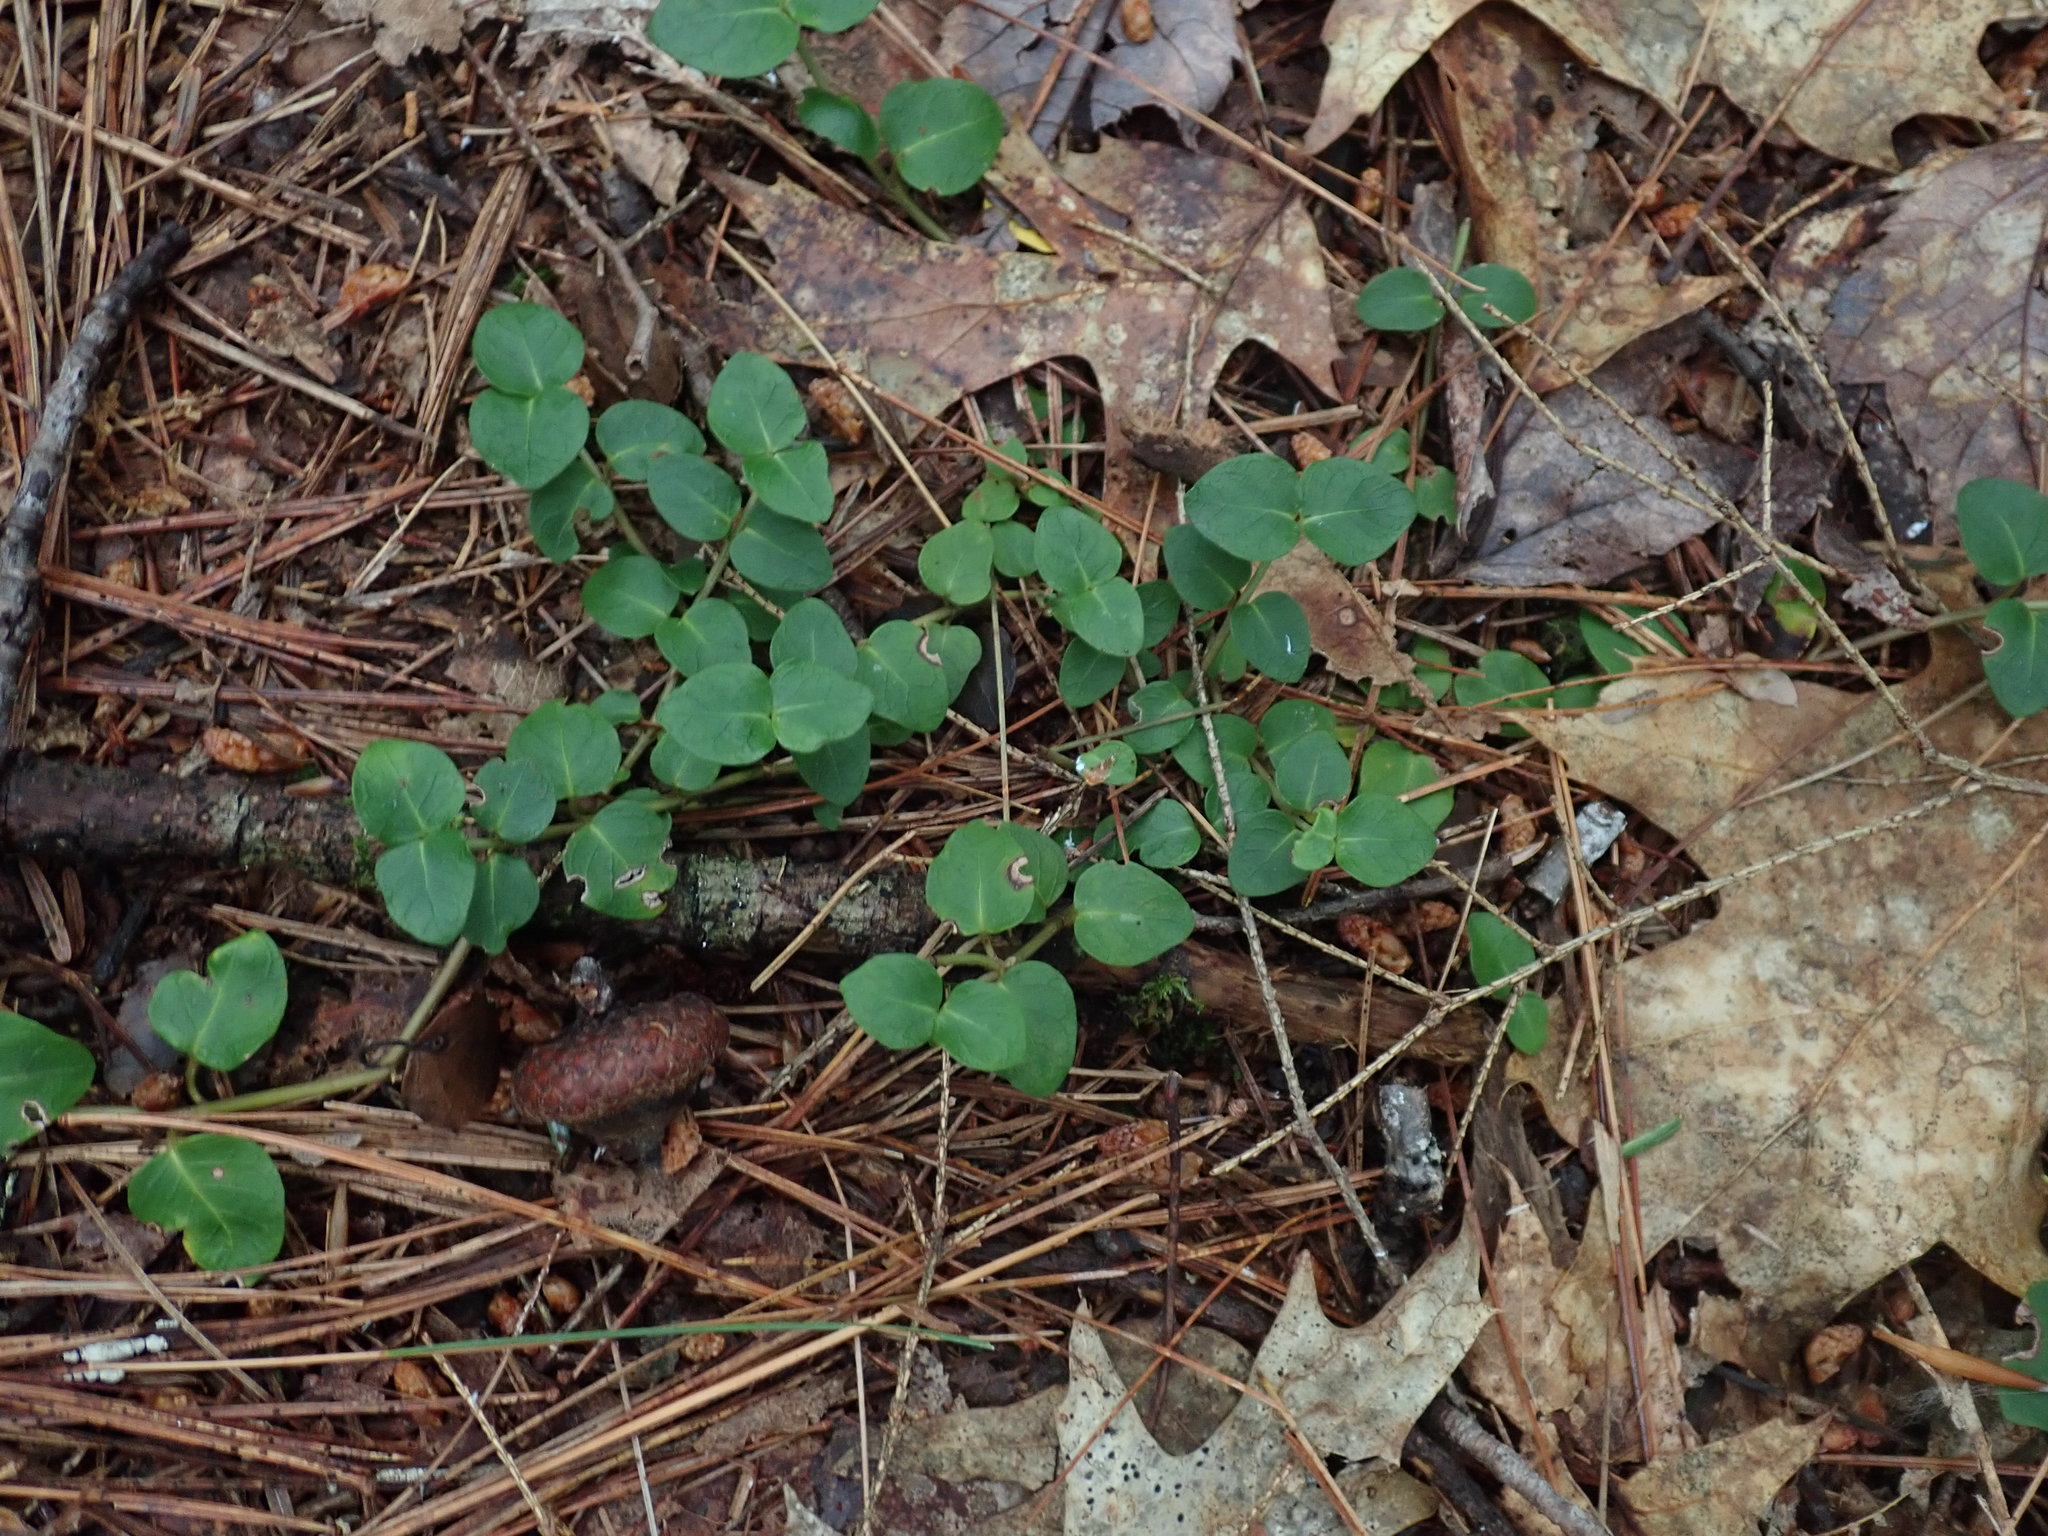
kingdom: Plantae
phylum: Tracheophyta
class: Magnoliopsida
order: Gentianales
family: Rubiaceae
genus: Mitchella
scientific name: Mitchella repens
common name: Partridge-berry
